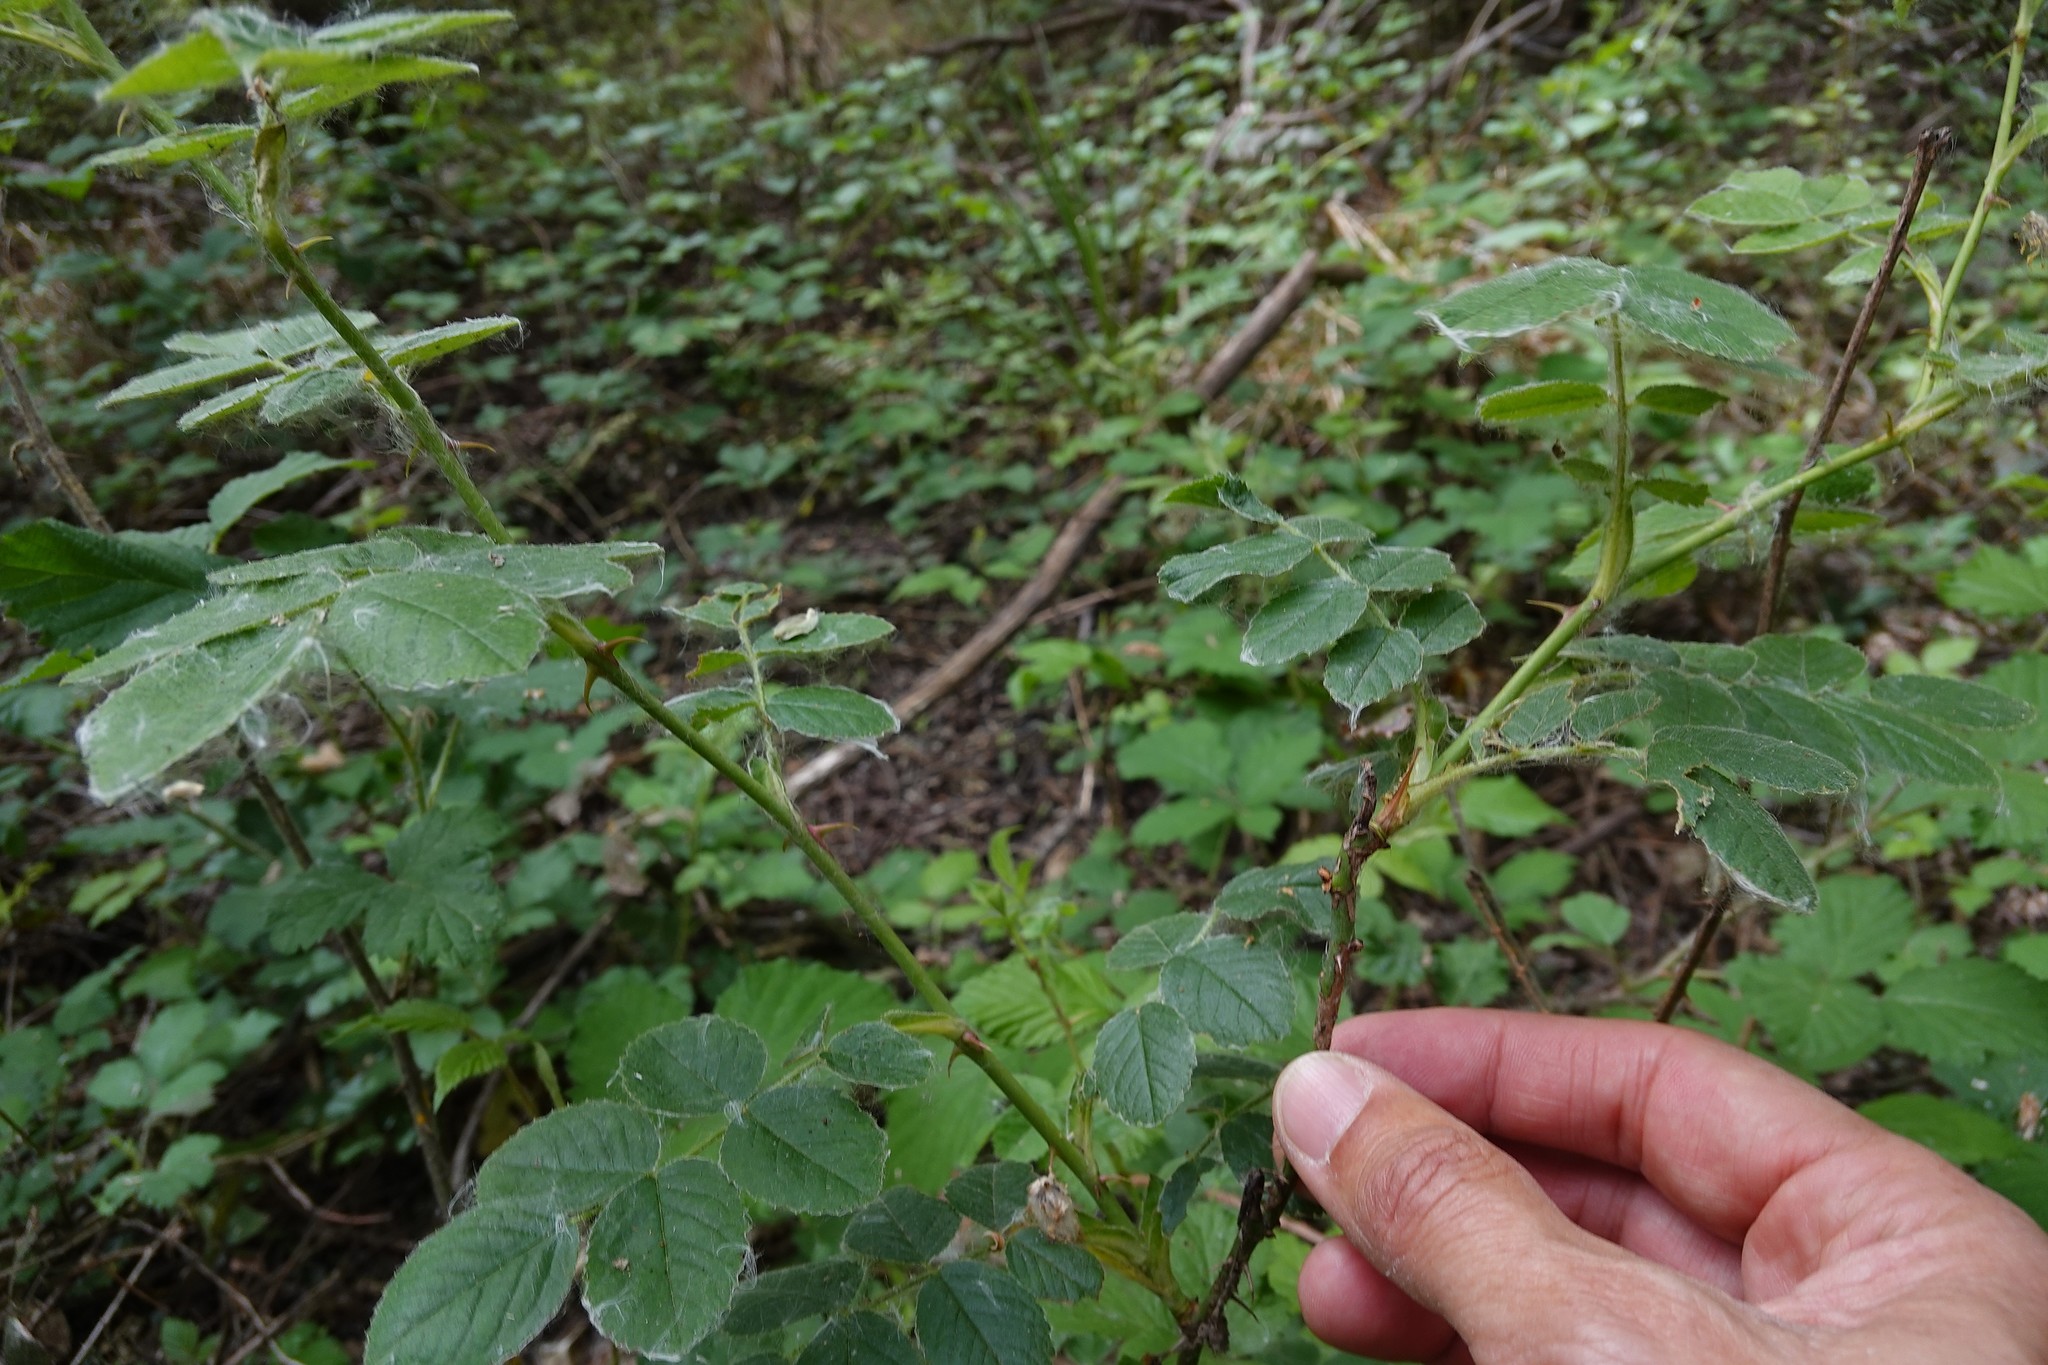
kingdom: Plantae
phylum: Tracheophyta
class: Magnoliopsida
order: Rosales
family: Rosaceae
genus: Rosa
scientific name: Rosa multiflora
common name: Multiflora rose
